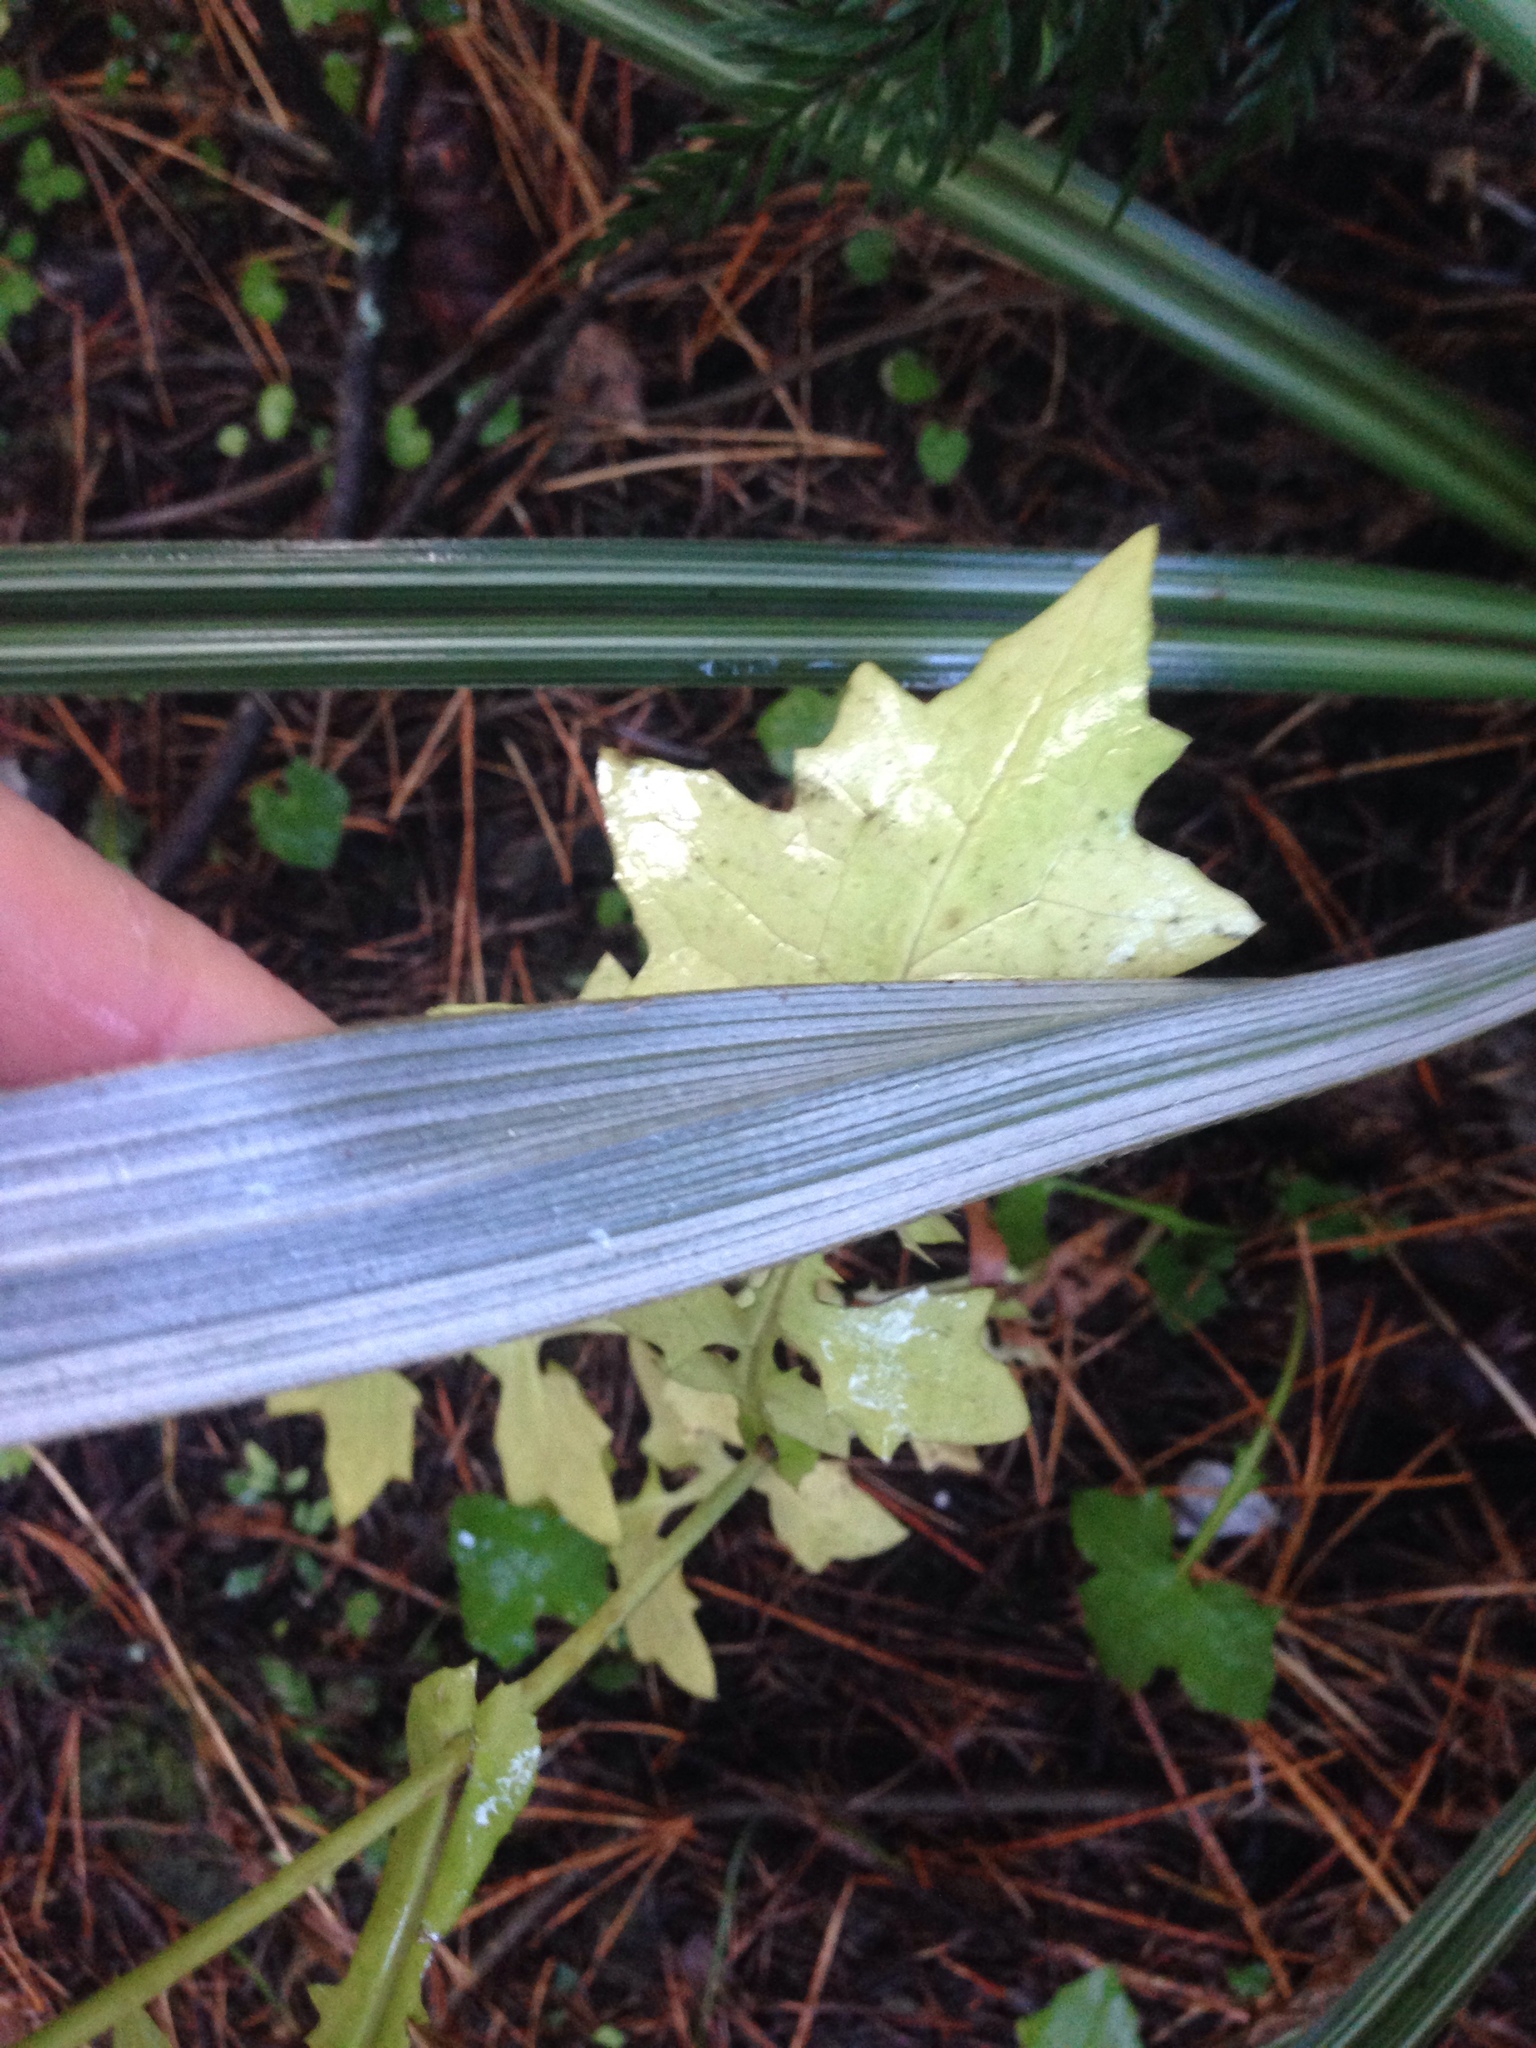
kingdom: Plantae
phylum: Tracheophyta
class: Liliopsida
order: Asparagales
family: Asteliaceae
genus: Astelia
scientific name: Astelia nervosa
